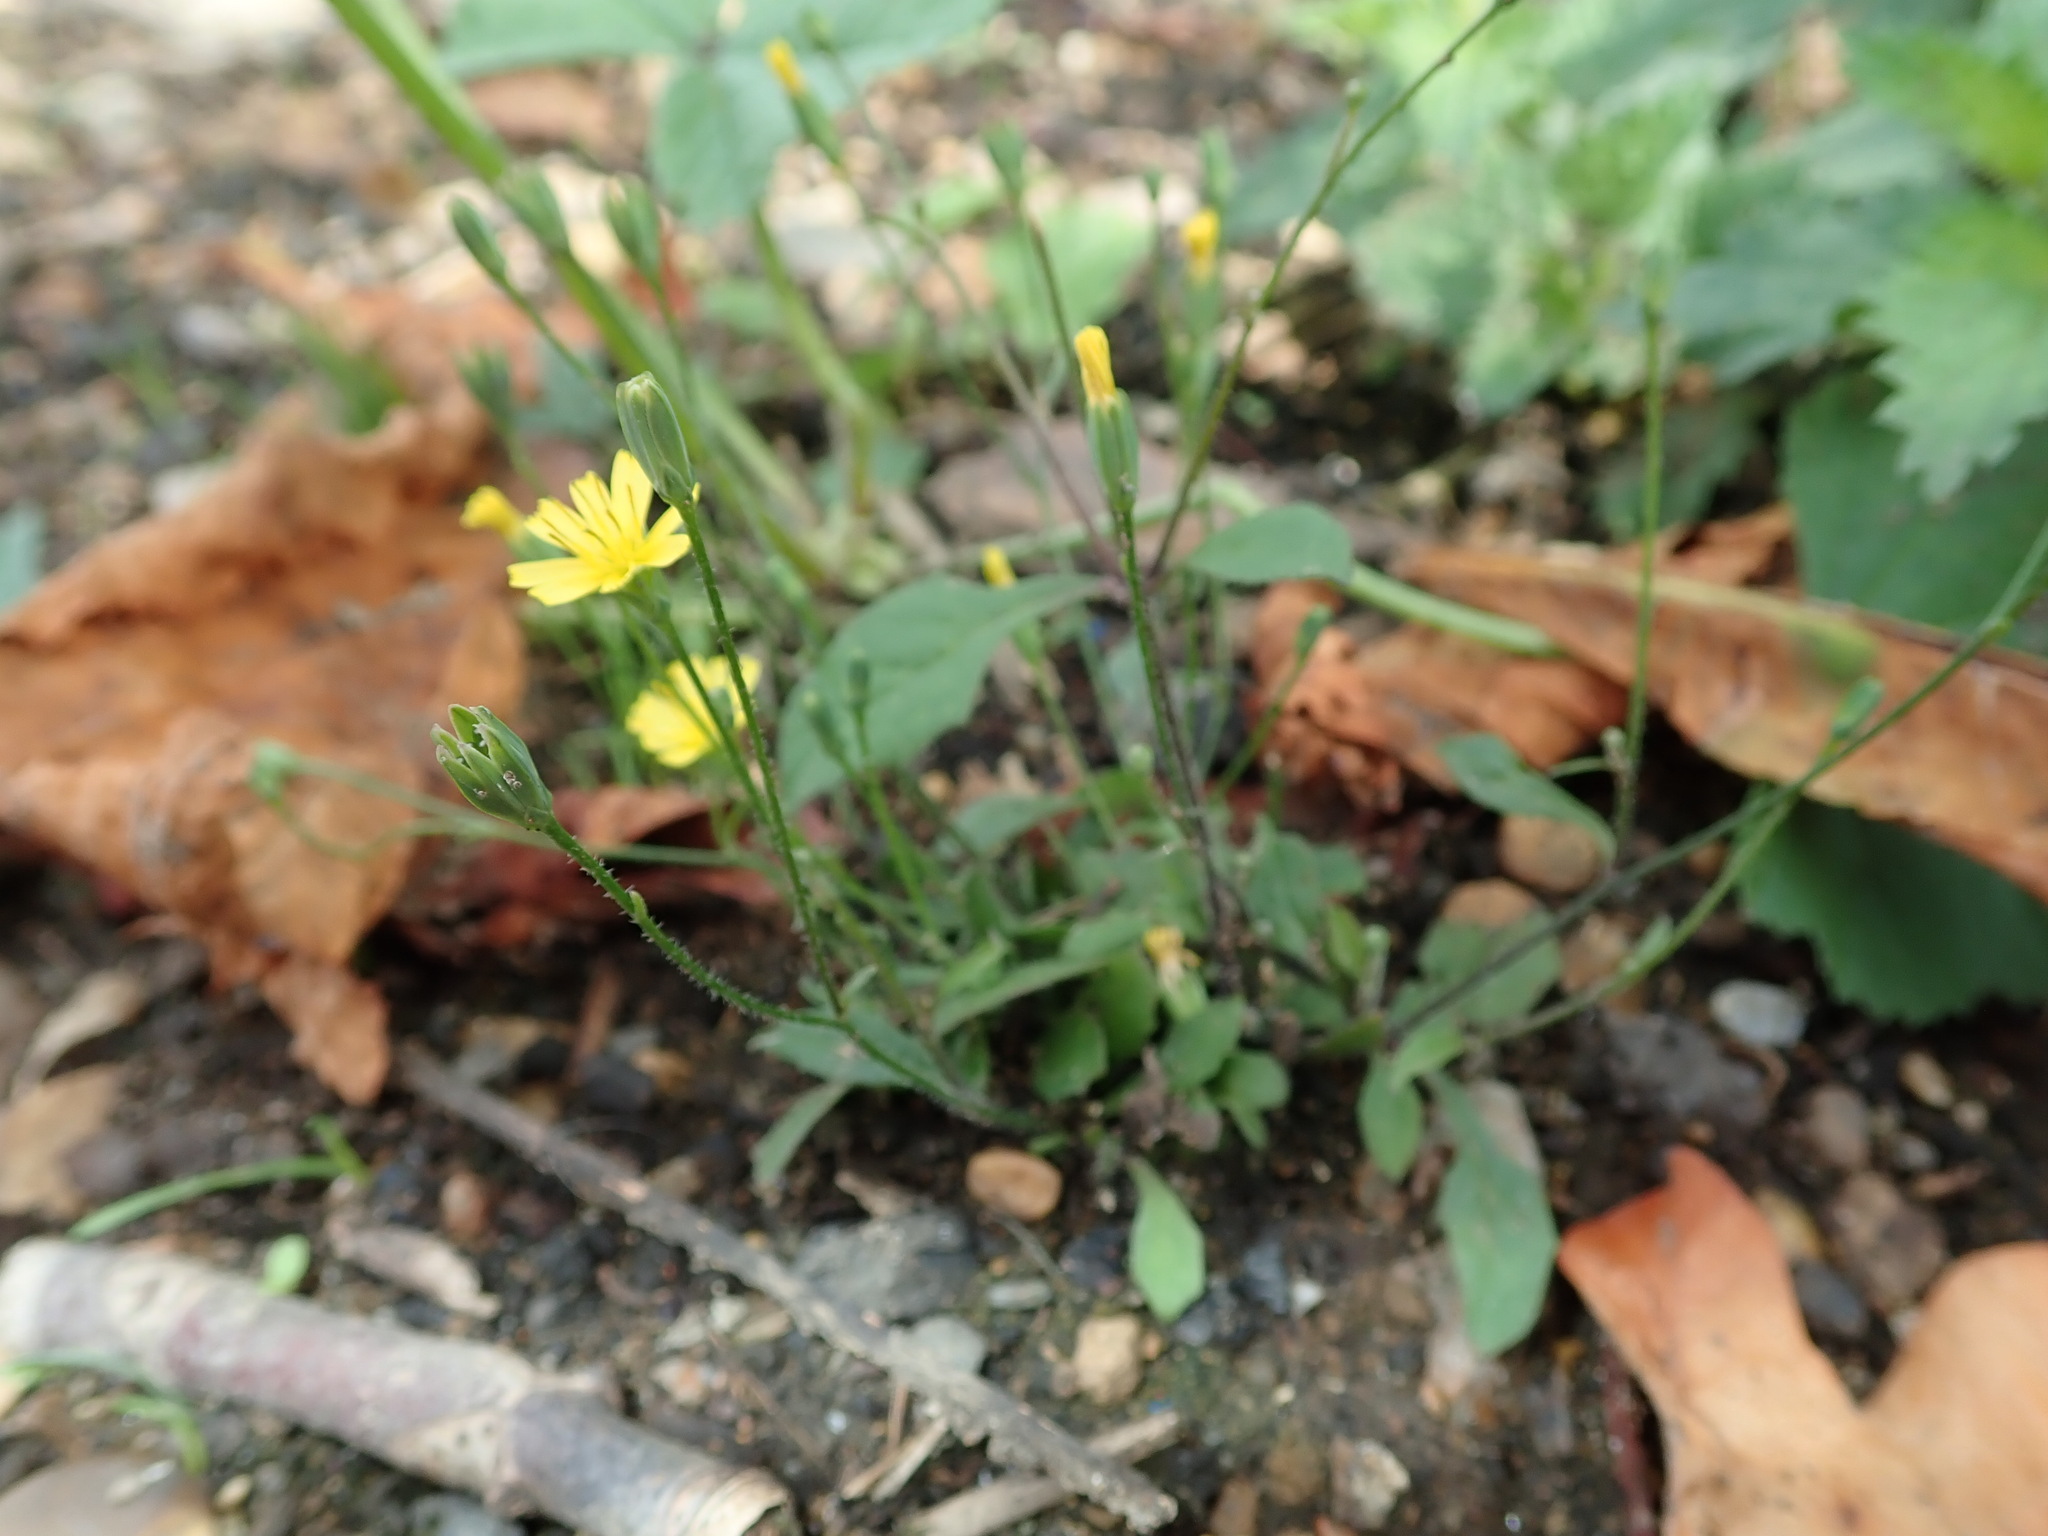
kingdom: Plantae
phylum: Tracheophyta
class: Magnoliopsida
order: Asterales
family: Asteraceae
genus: Lapsana
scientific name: Lapsana communis
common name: Nipplewort
